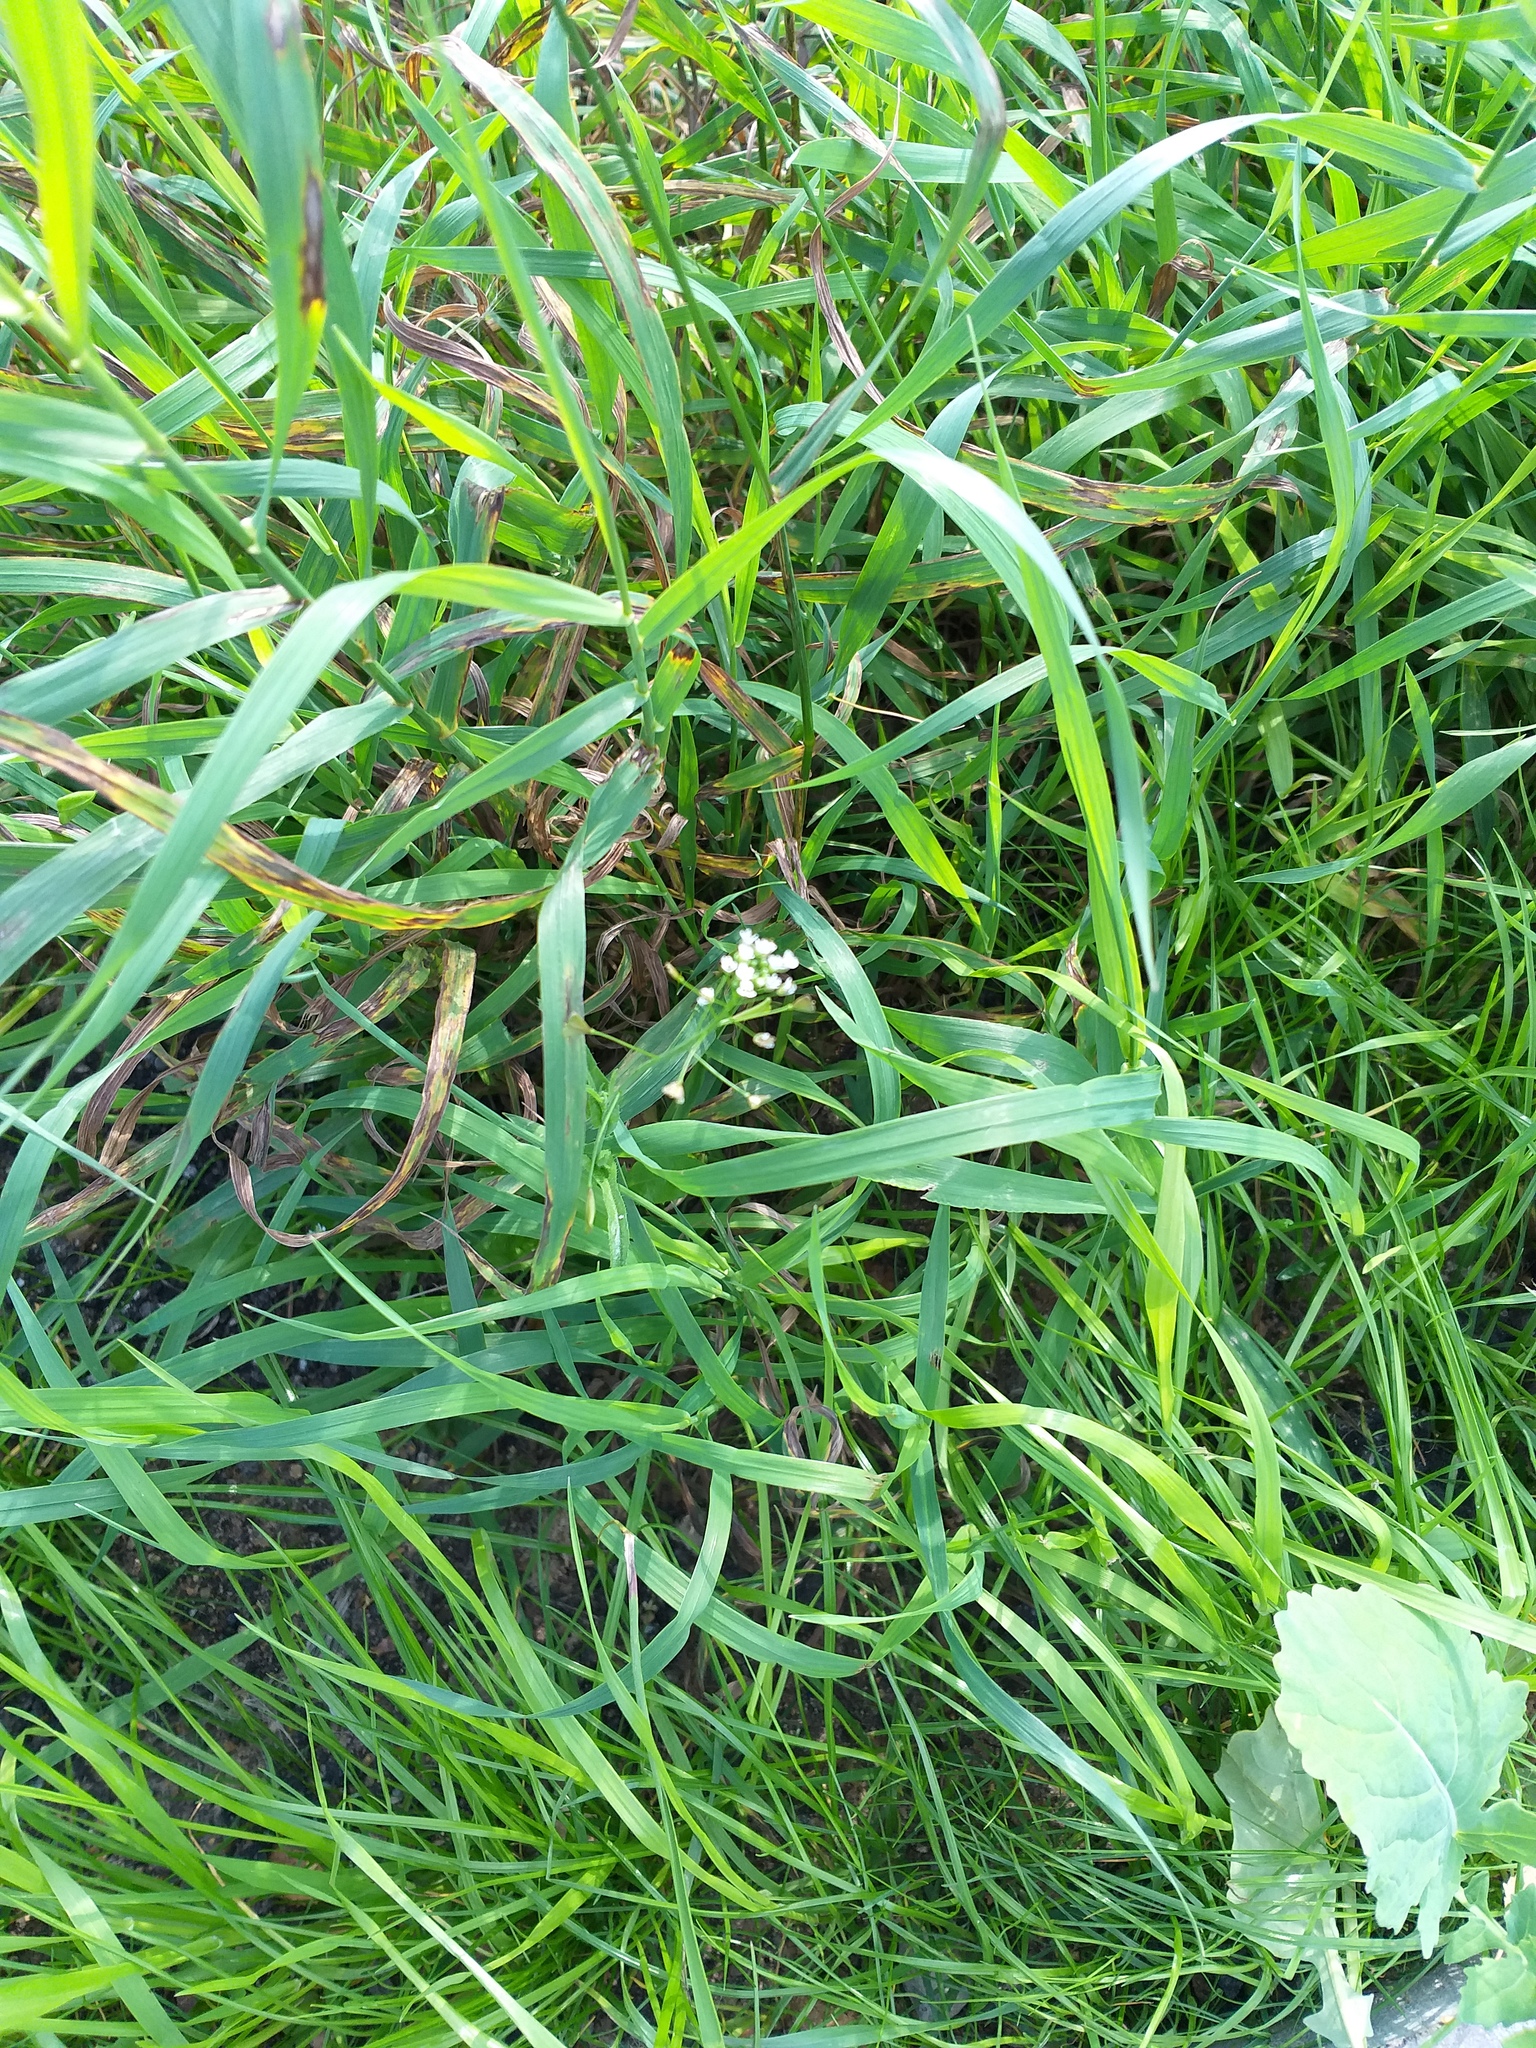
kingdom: Plantae
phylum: Tracheophyta
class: Magnoliopsida
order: Brassicales
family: Brassicaceae
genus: Capsella
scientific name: Capsella bursa-pastoris
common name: Shepherd's purse
